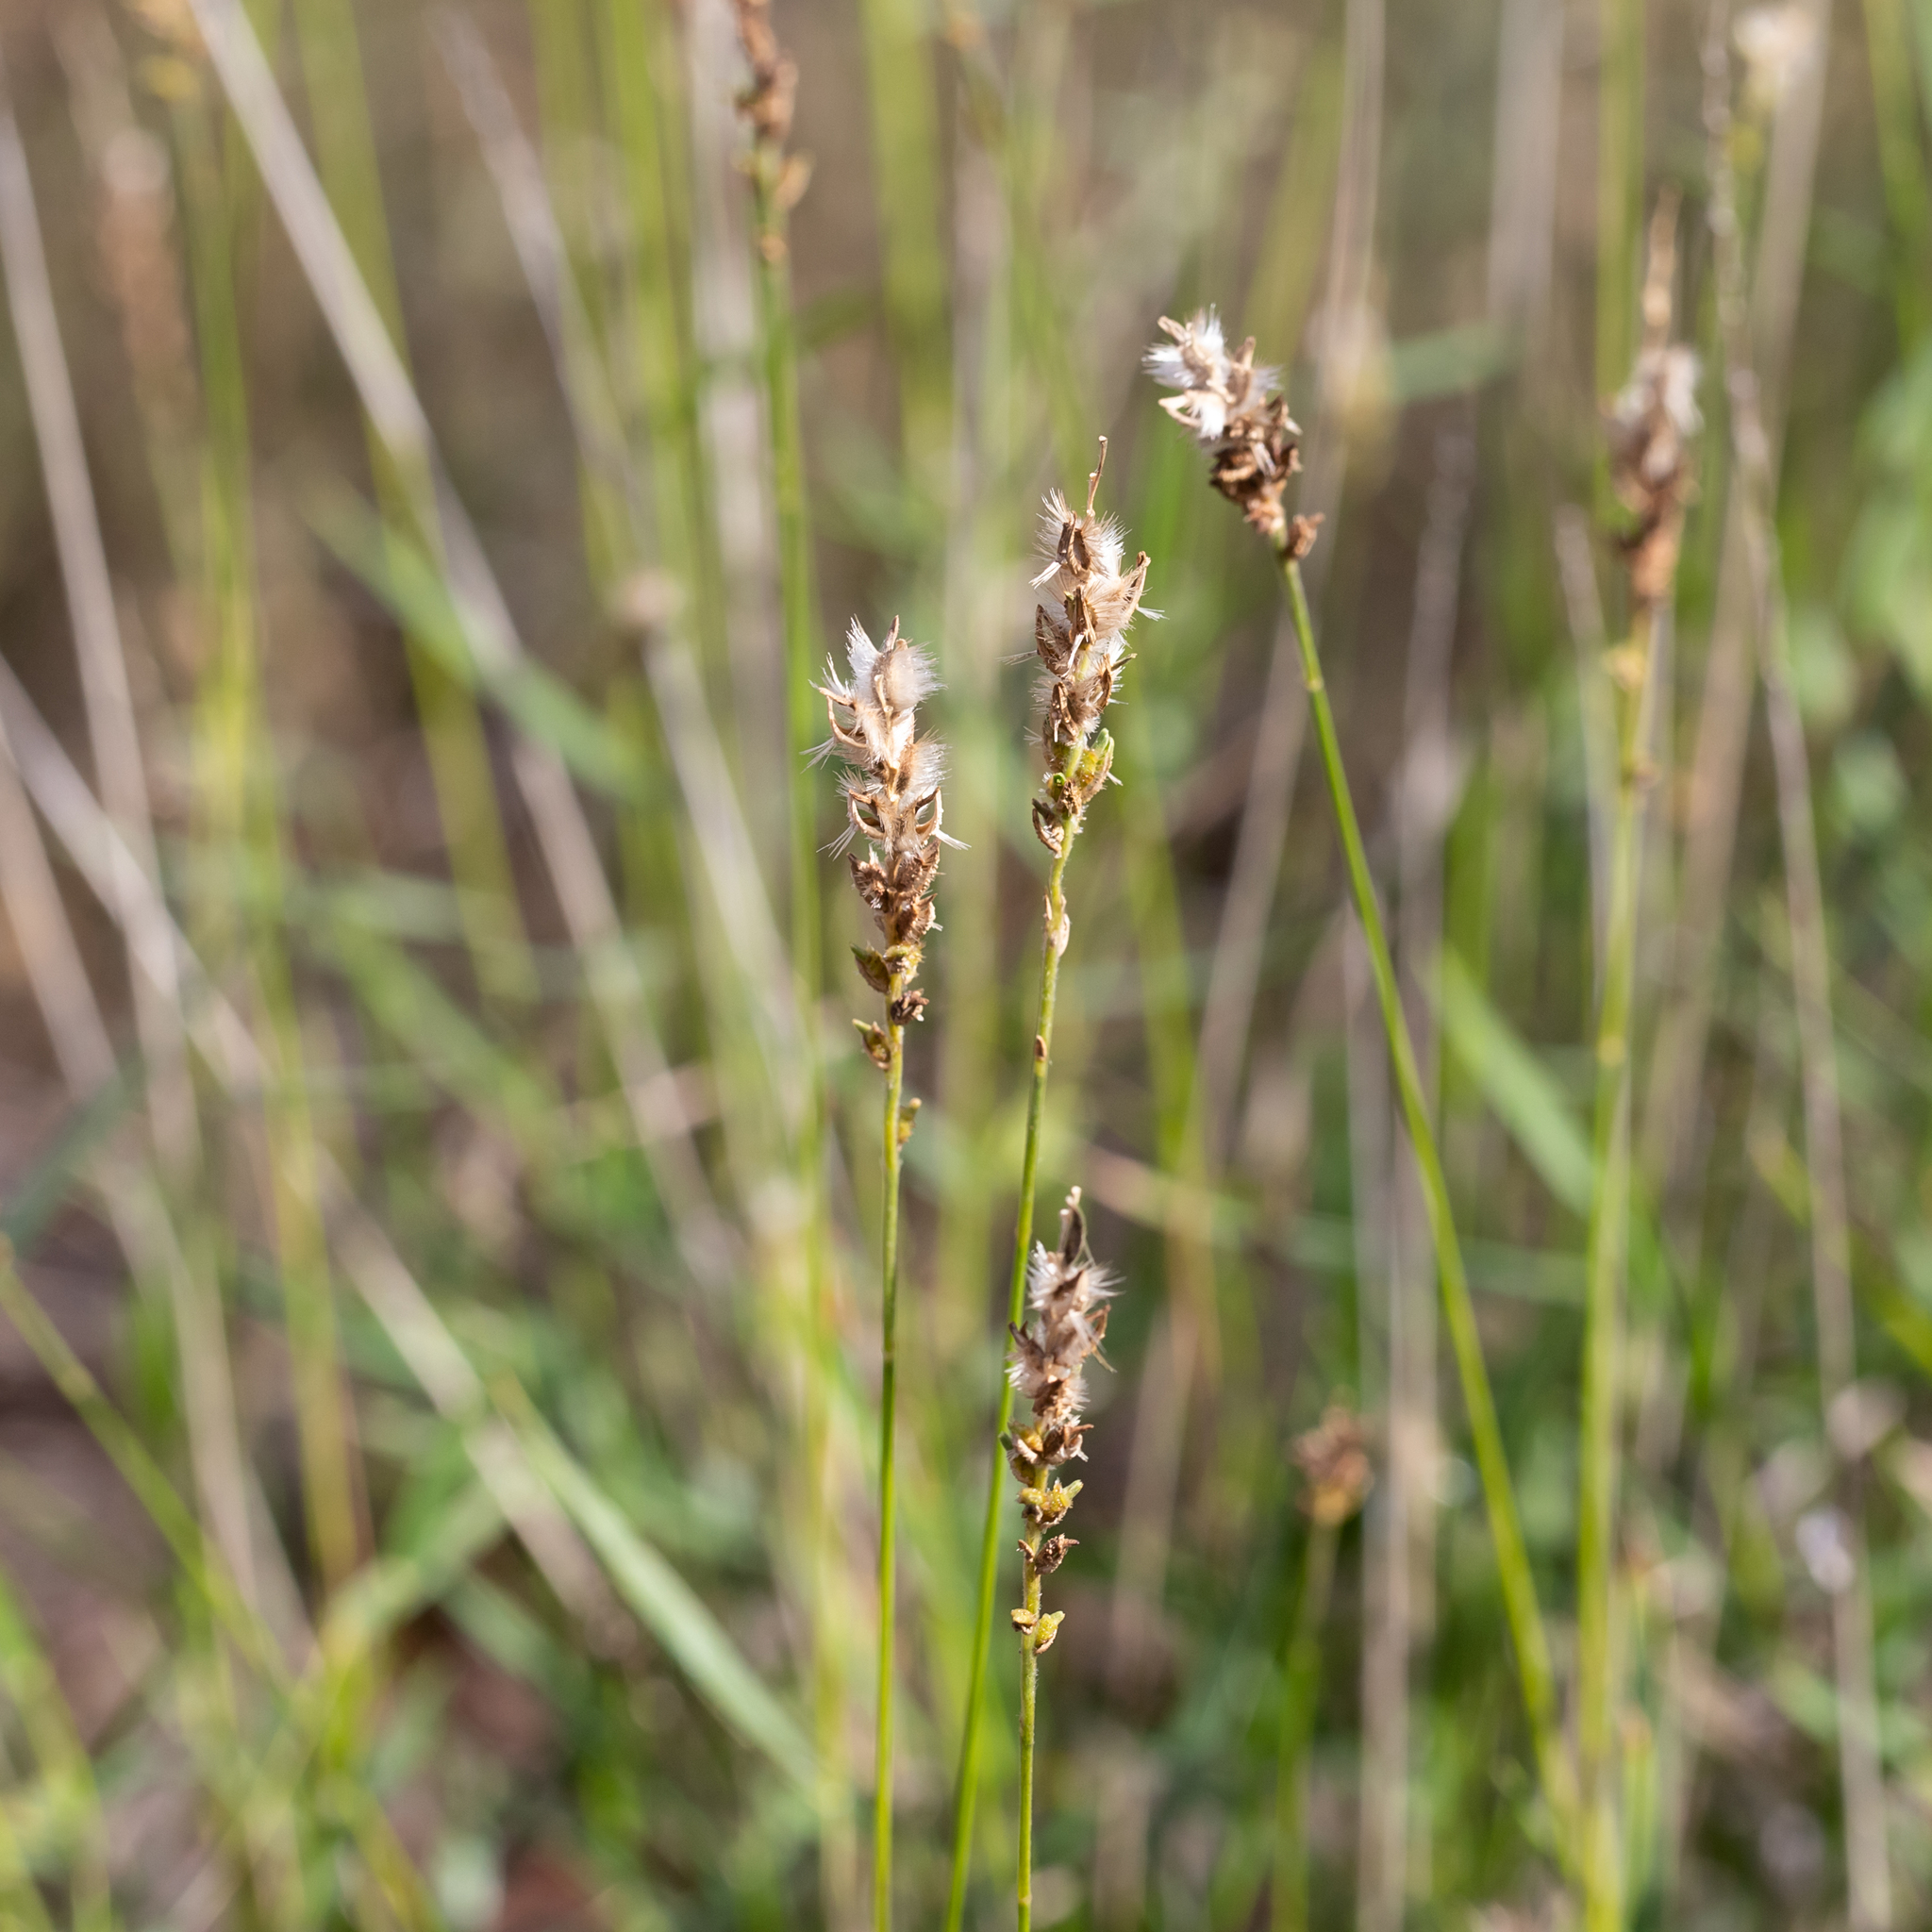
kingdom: Plantae
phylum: Tracheophyta
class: Liliopsida
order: Poales
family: Poaceae
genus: Thyridolepis
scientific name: Thyridolepis mitchelliana
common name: Rock tassel grass
